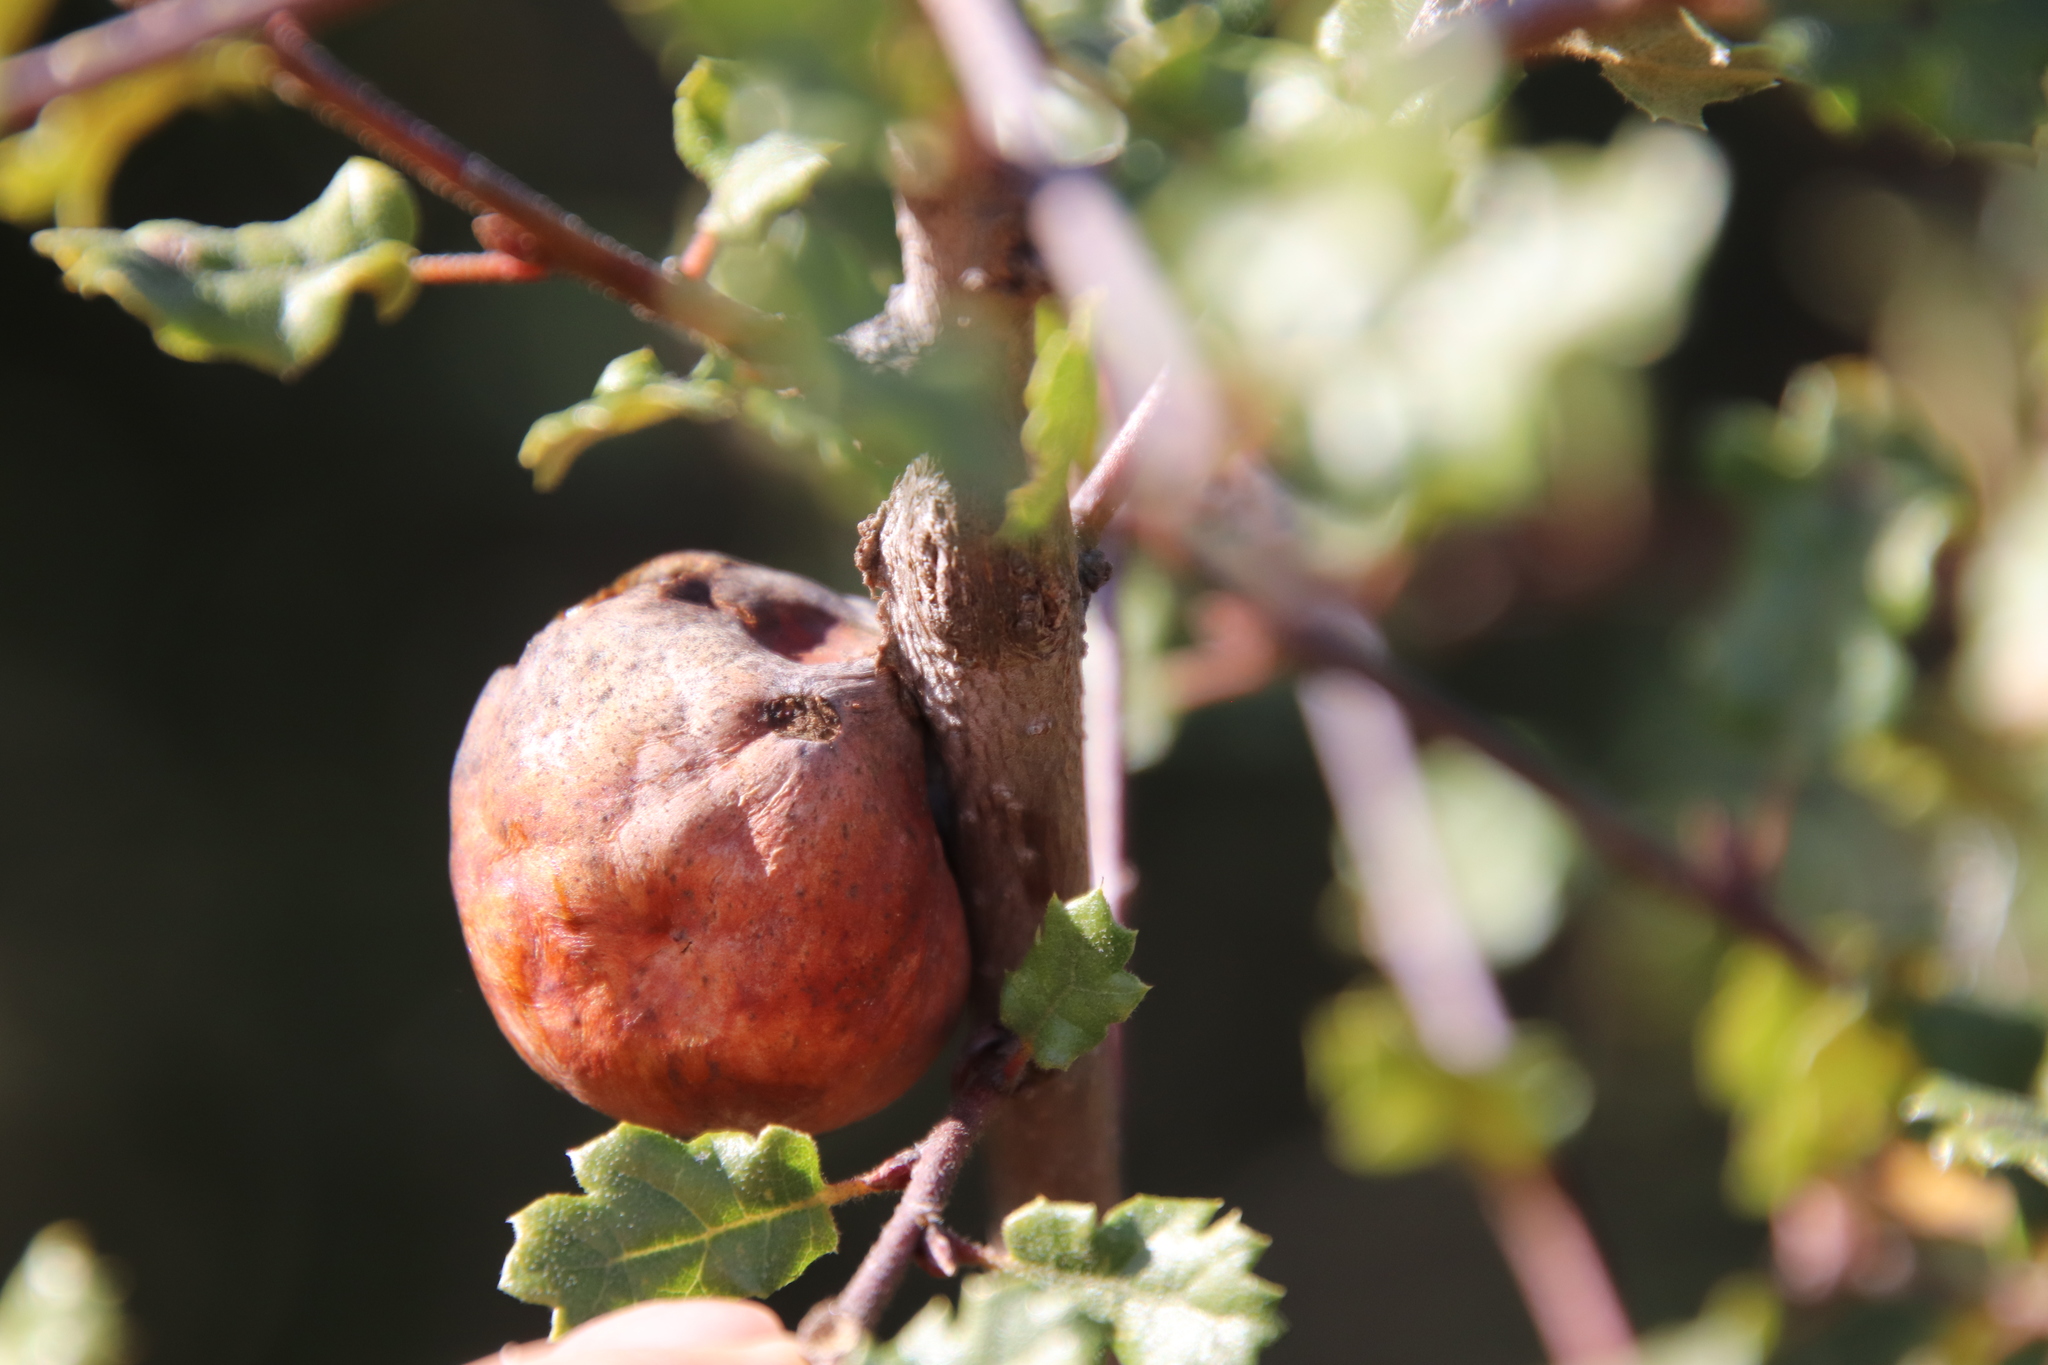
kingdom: Animalia
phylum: Arthropoda
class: Insecta
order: Hymenoptera
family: Cynipidae
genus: Andricus
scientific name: Andricus quercuscalifornicus
